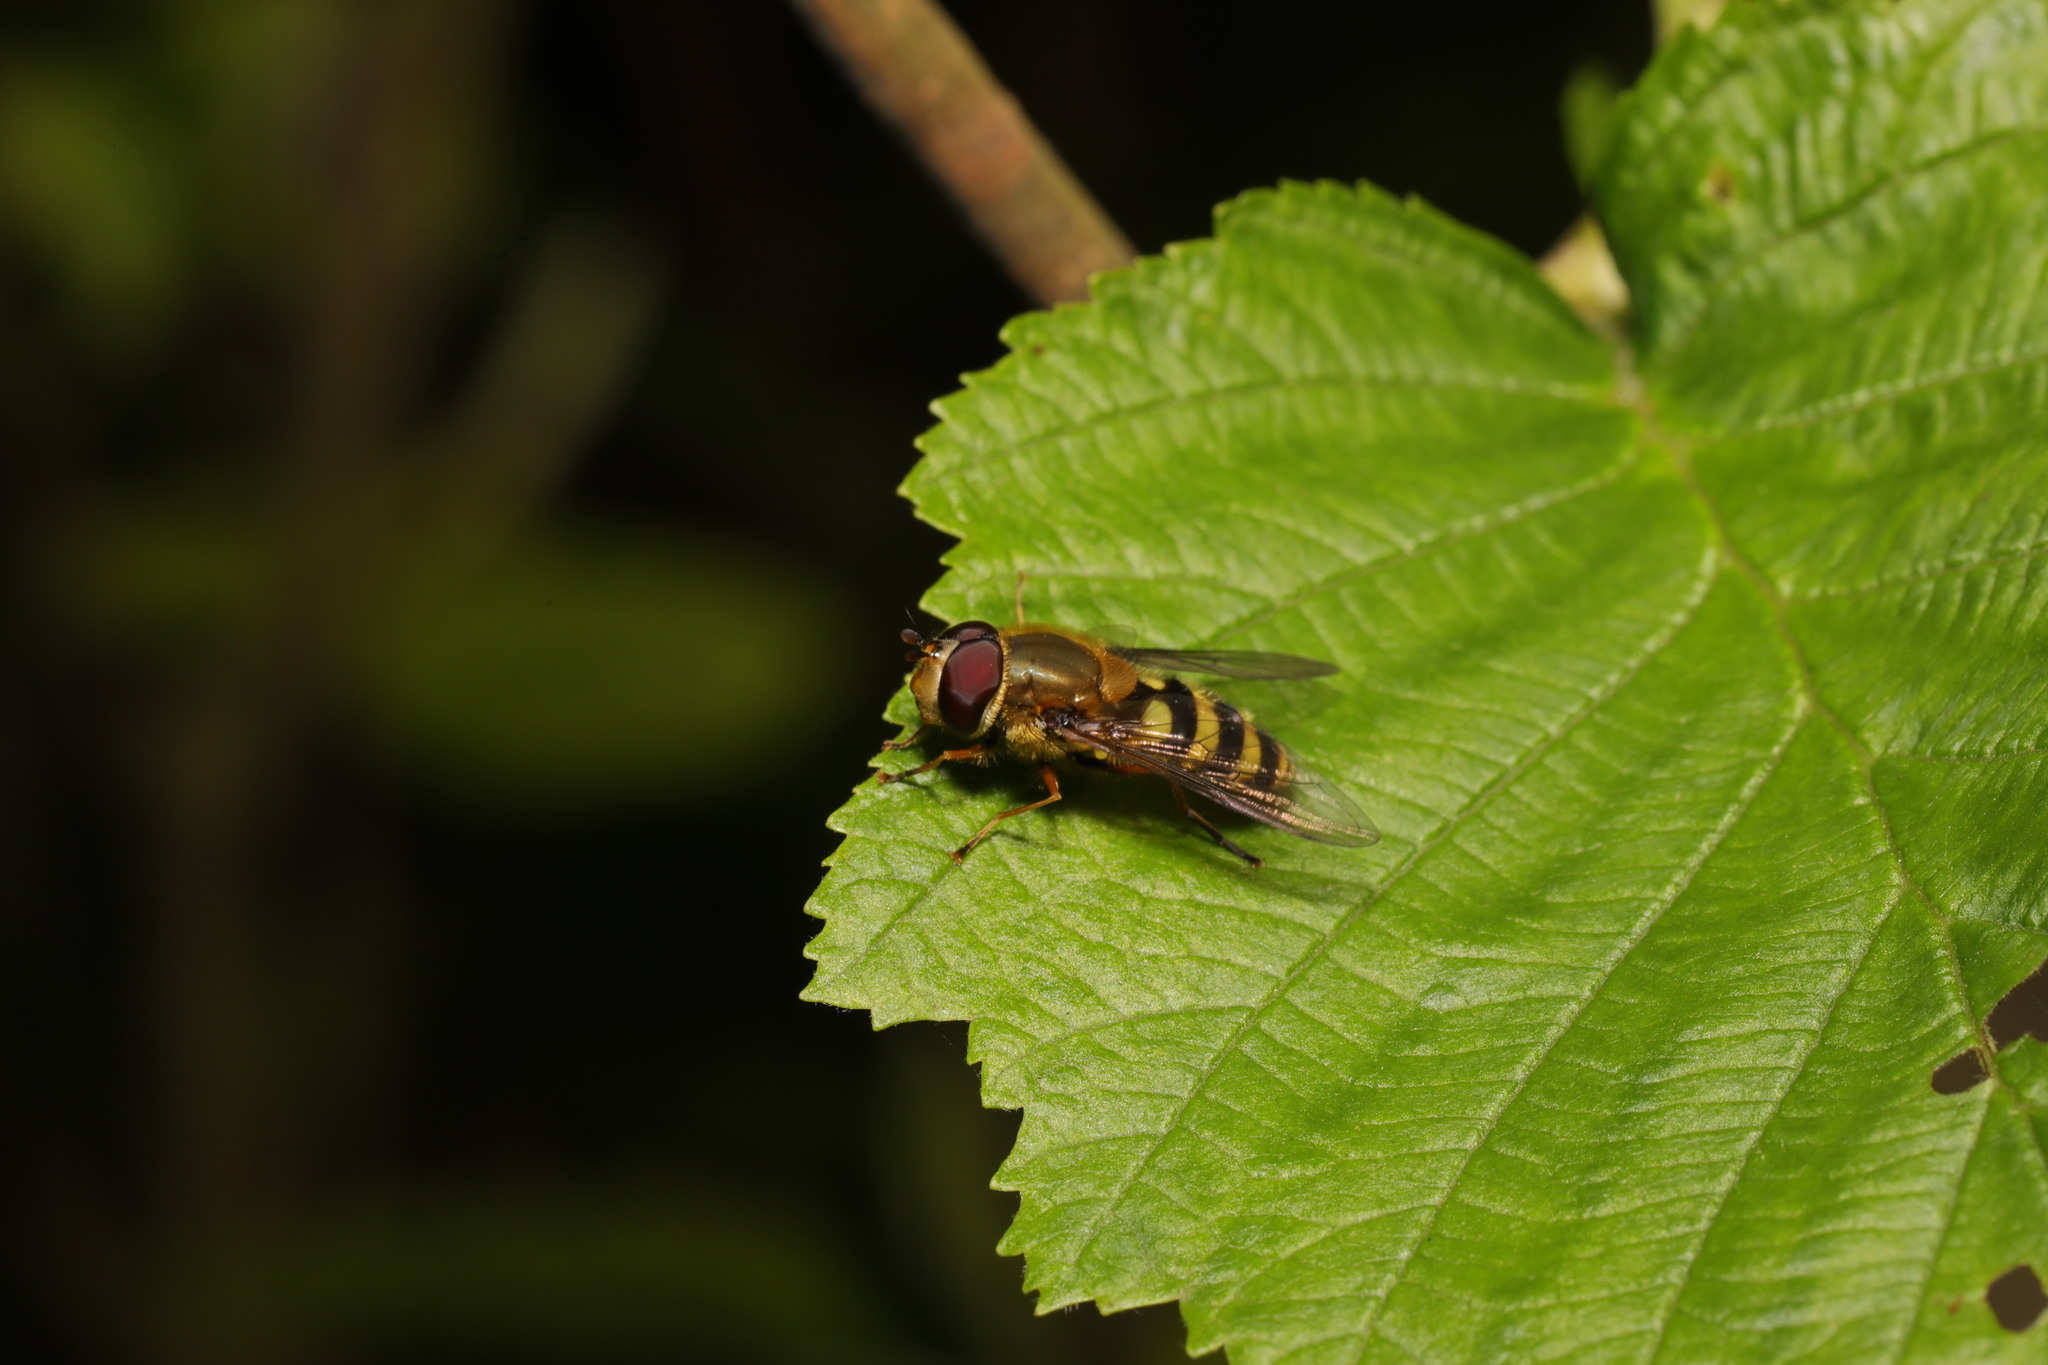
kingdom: Animalia
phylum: Arthropoda
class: Insecta
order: Diptera
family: Syrphidae
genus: Syrphus
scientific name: Syrphus
